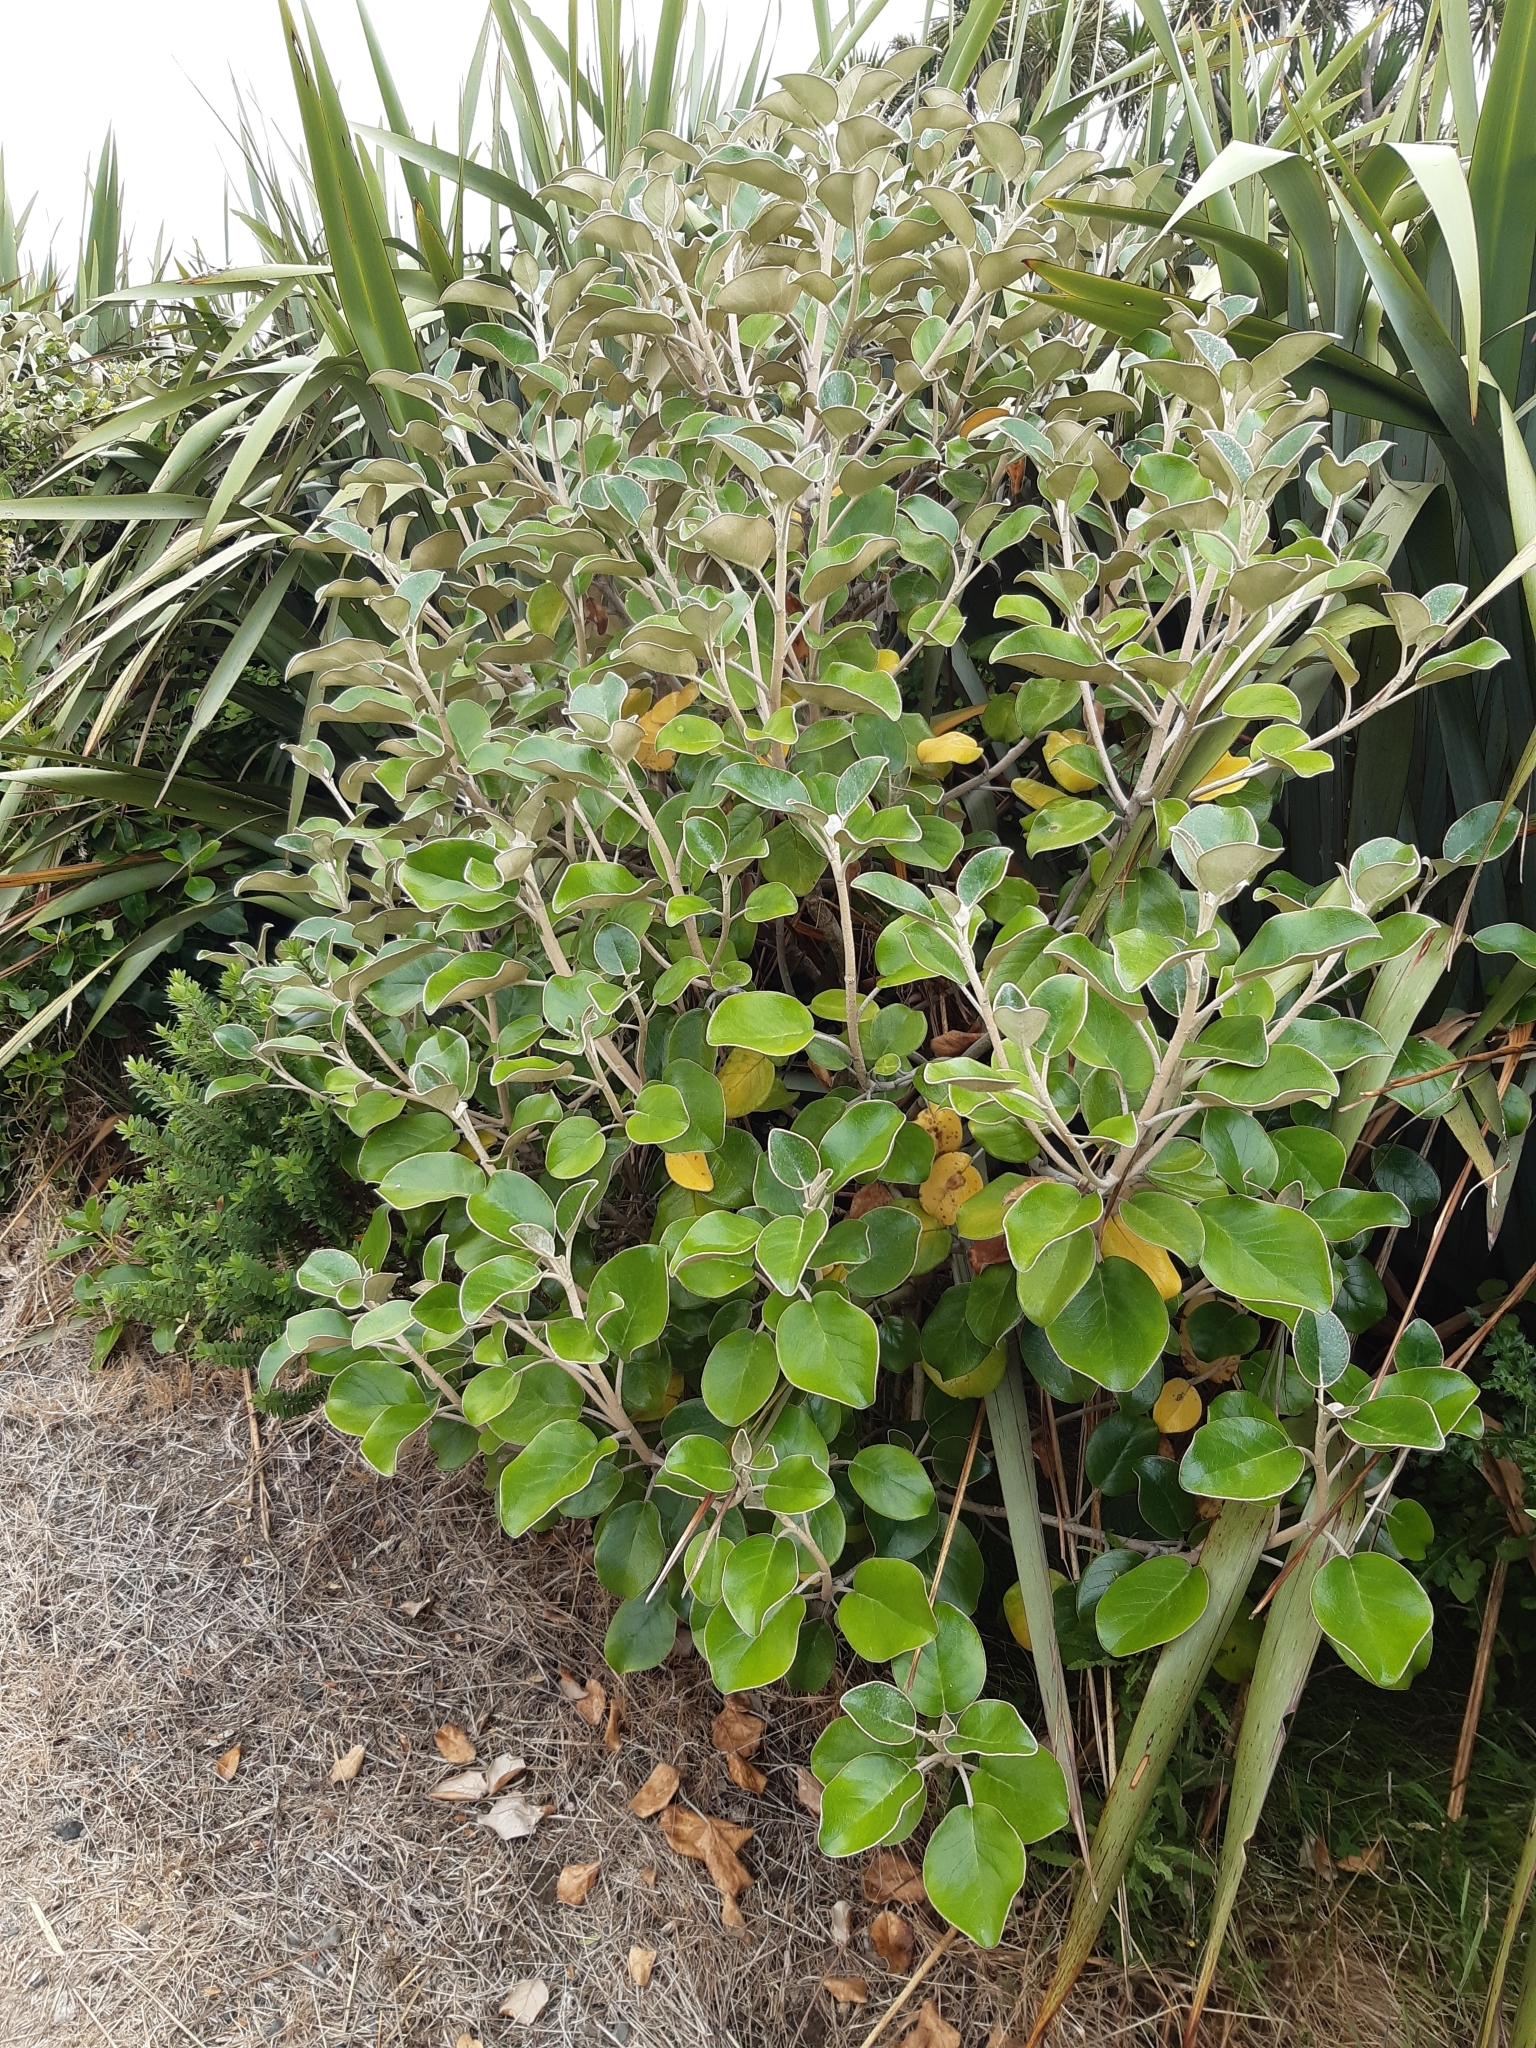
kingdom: Plantae
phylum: Tracheophyta
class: Magnoliopsida
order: Asterales
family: Asteraceae
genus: Brachyglottis
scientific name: Brachyglottis rotundifolia
